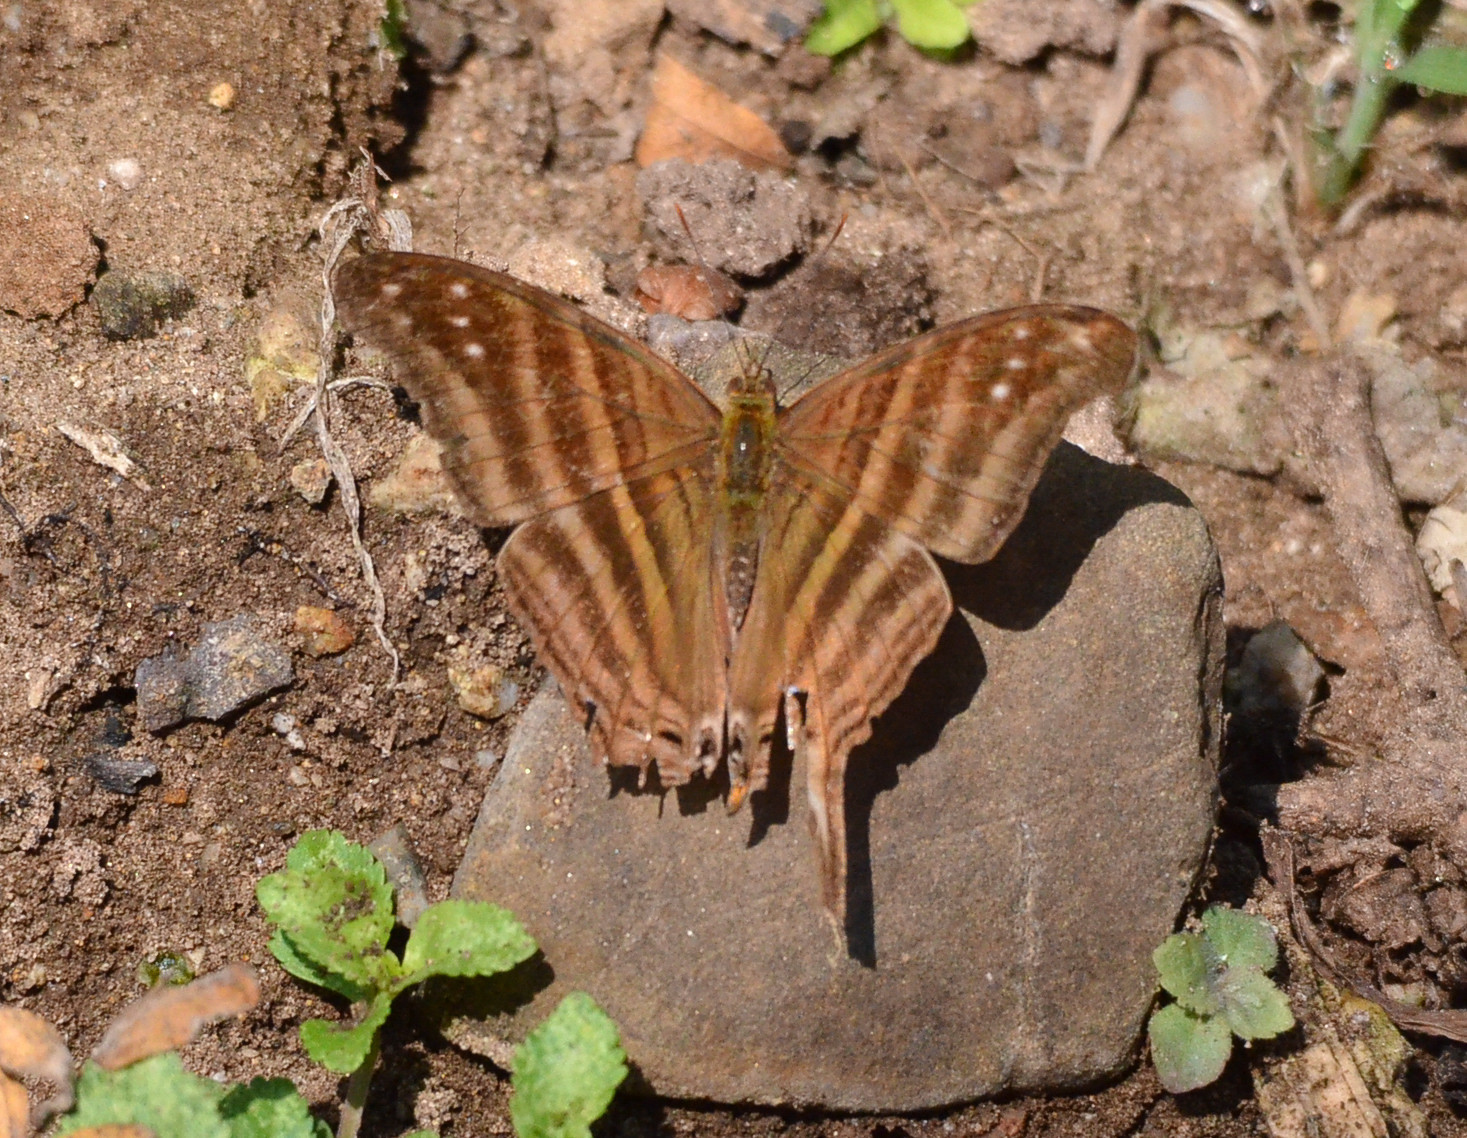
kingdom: Animalia
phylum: Arthropoda
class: Insecta
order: Lepidoptera
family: Nymphalidae
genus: Marpesia
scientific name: Marpesia chiron
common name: Many-banded daggerwing
